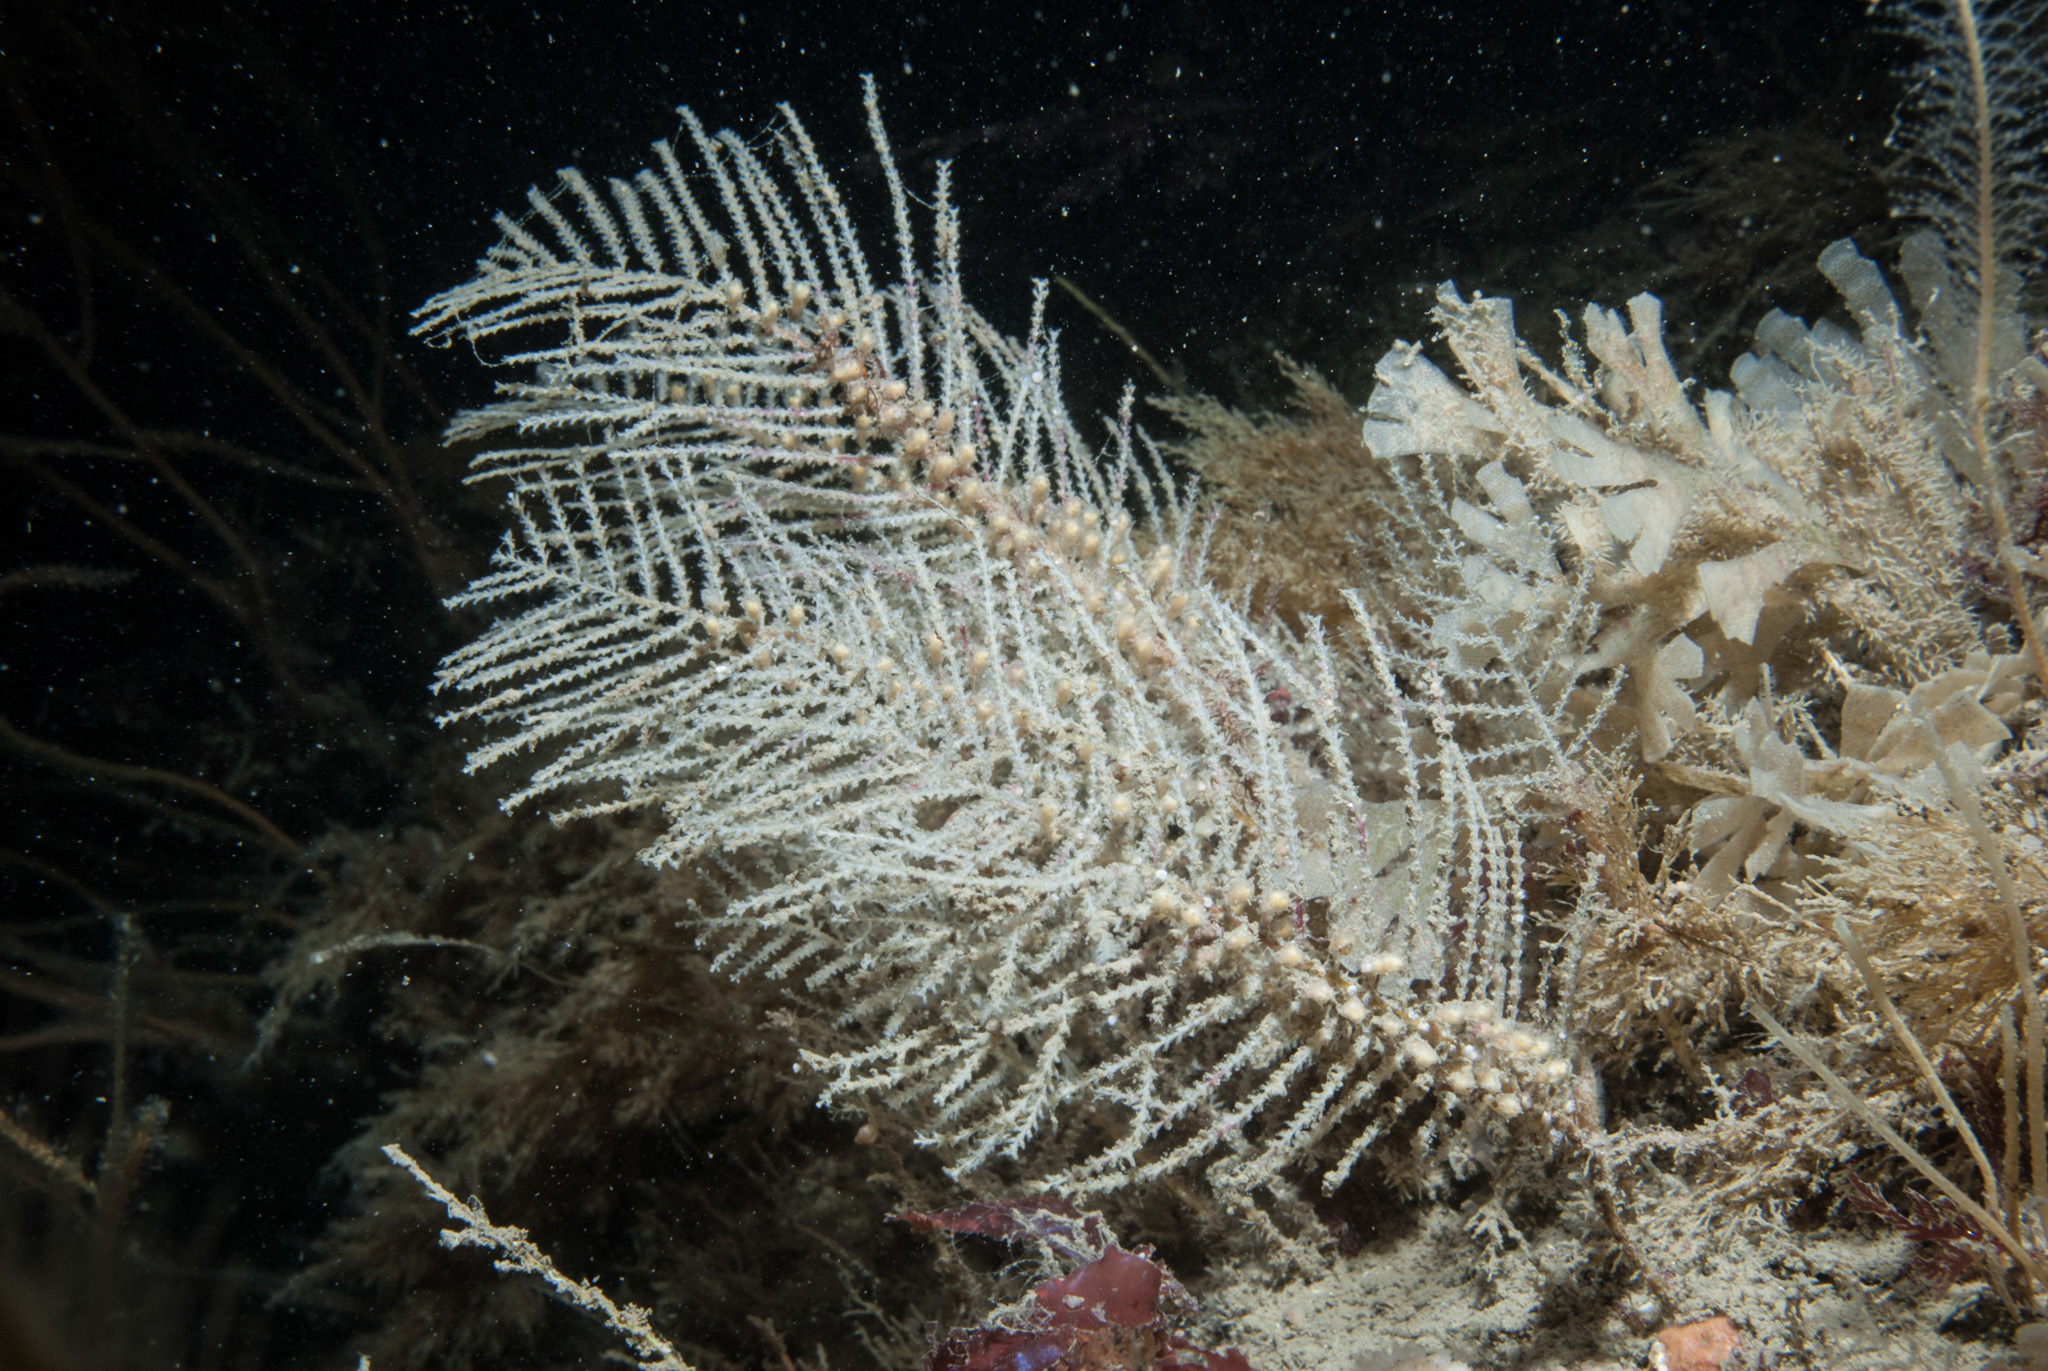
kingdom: Animalia
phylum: Cnidaria
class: Hydrozoa
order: Leptothecata
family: Sertulariidae
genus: Diphasia
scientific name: Diphasia margareta
